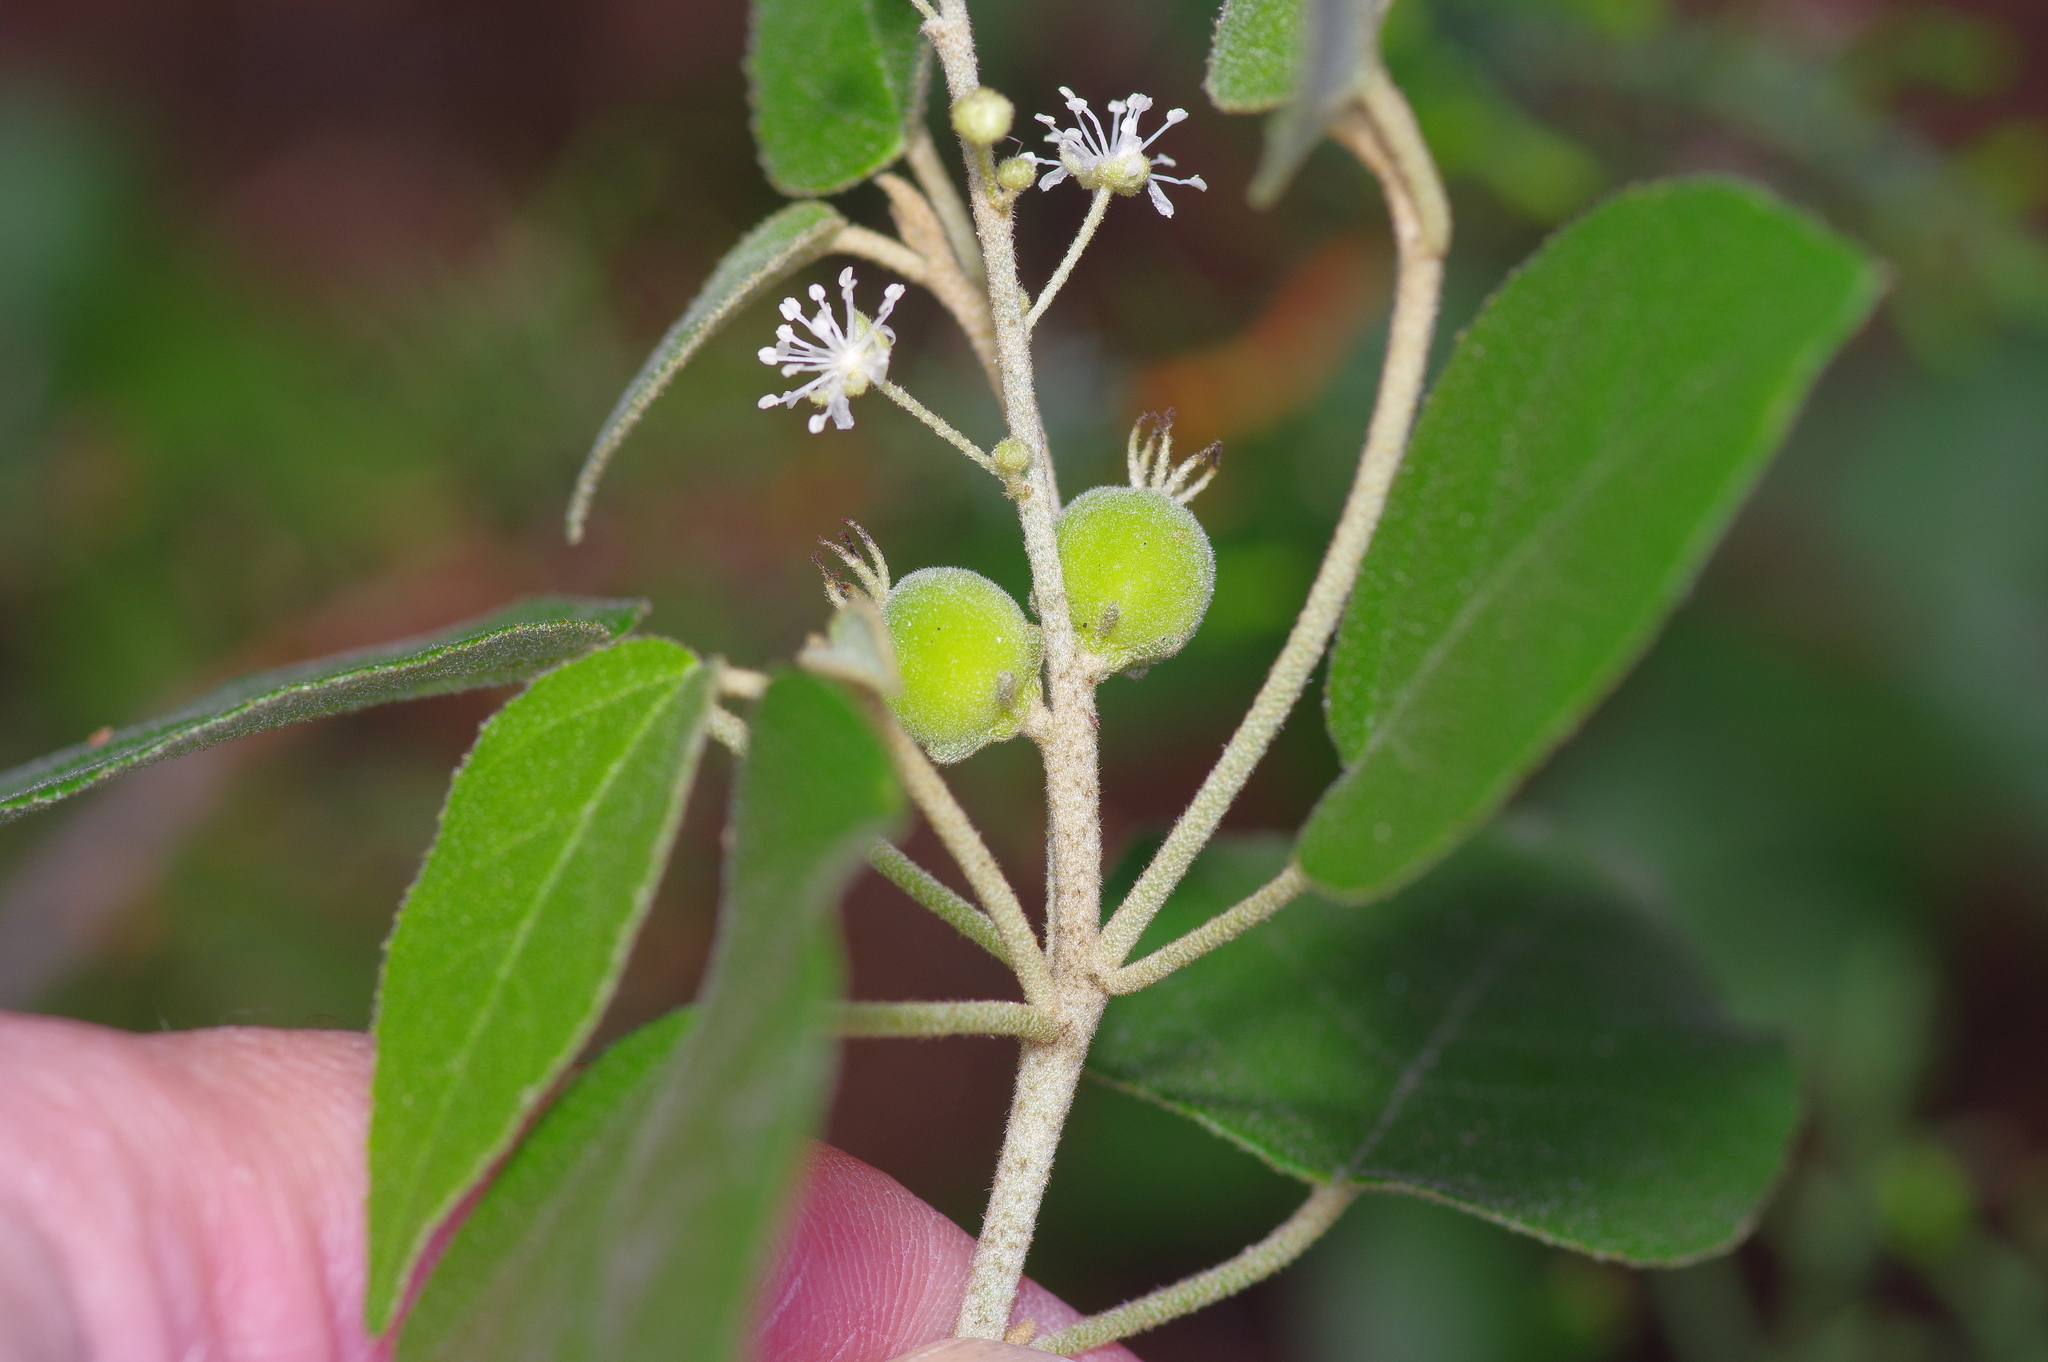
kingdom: Plantae
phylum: Tracheophyta
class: Magnoliopsida
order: Malpighiales
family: Euphorbiaceae
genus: Croton
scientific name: Croton fruticulosus
